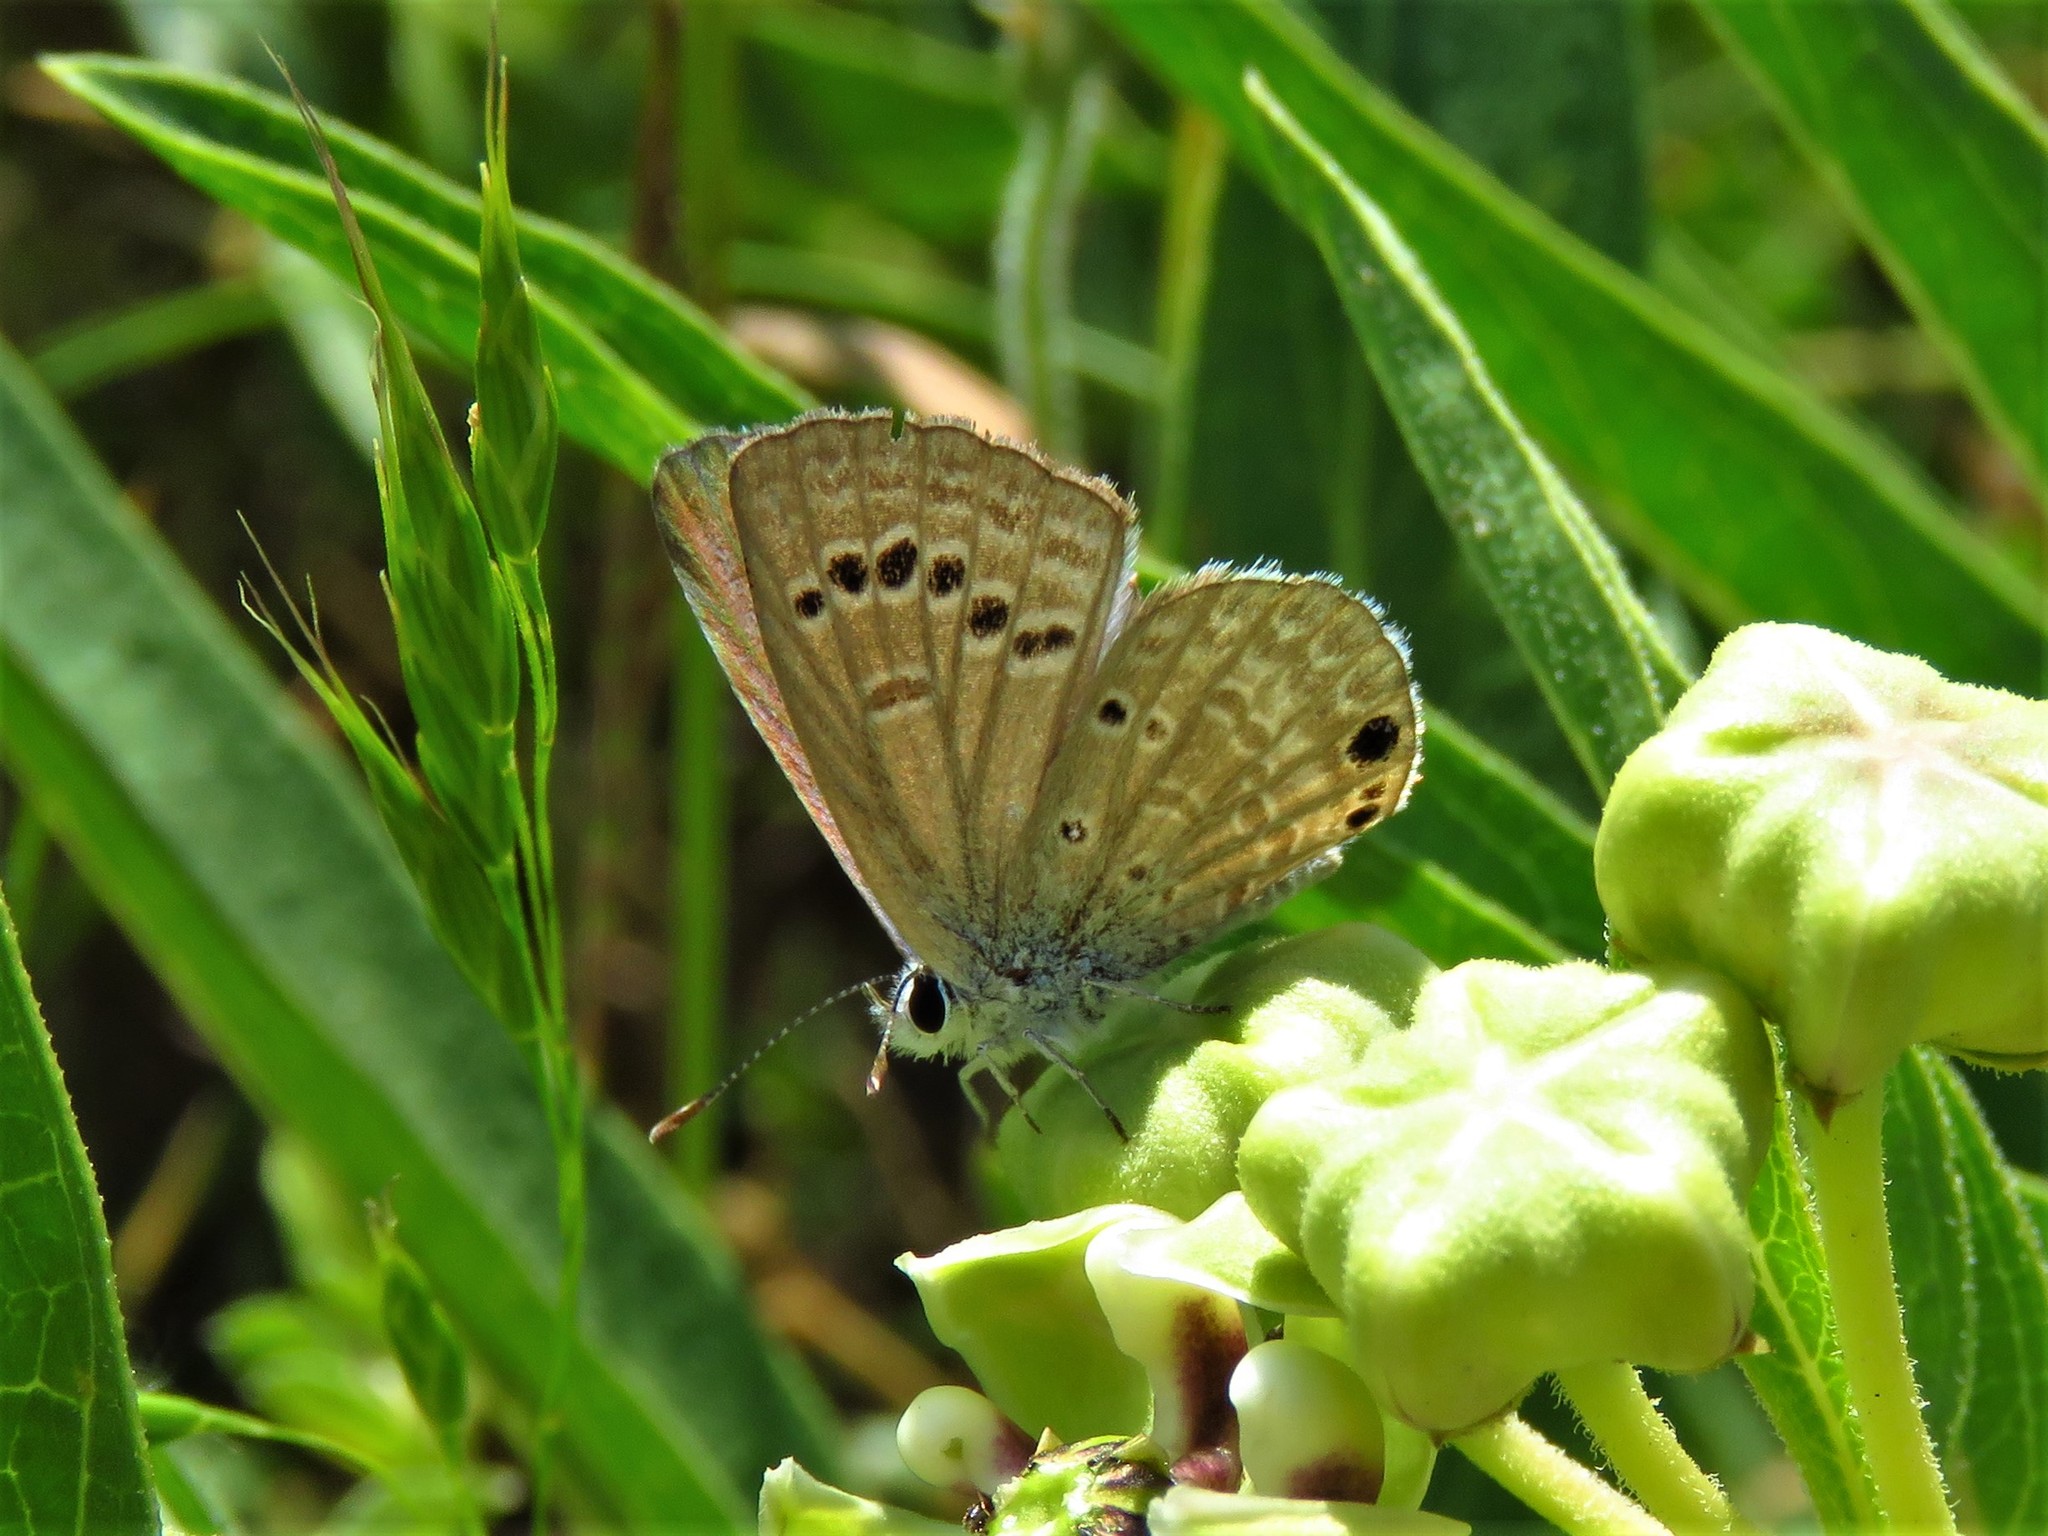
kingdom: Animalia
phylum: Arthropoda
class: Insecta
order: Lepidoptera
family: Lycaenidae
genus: Echinargus
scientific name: Echinargus isola
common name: Reakirt's blue
